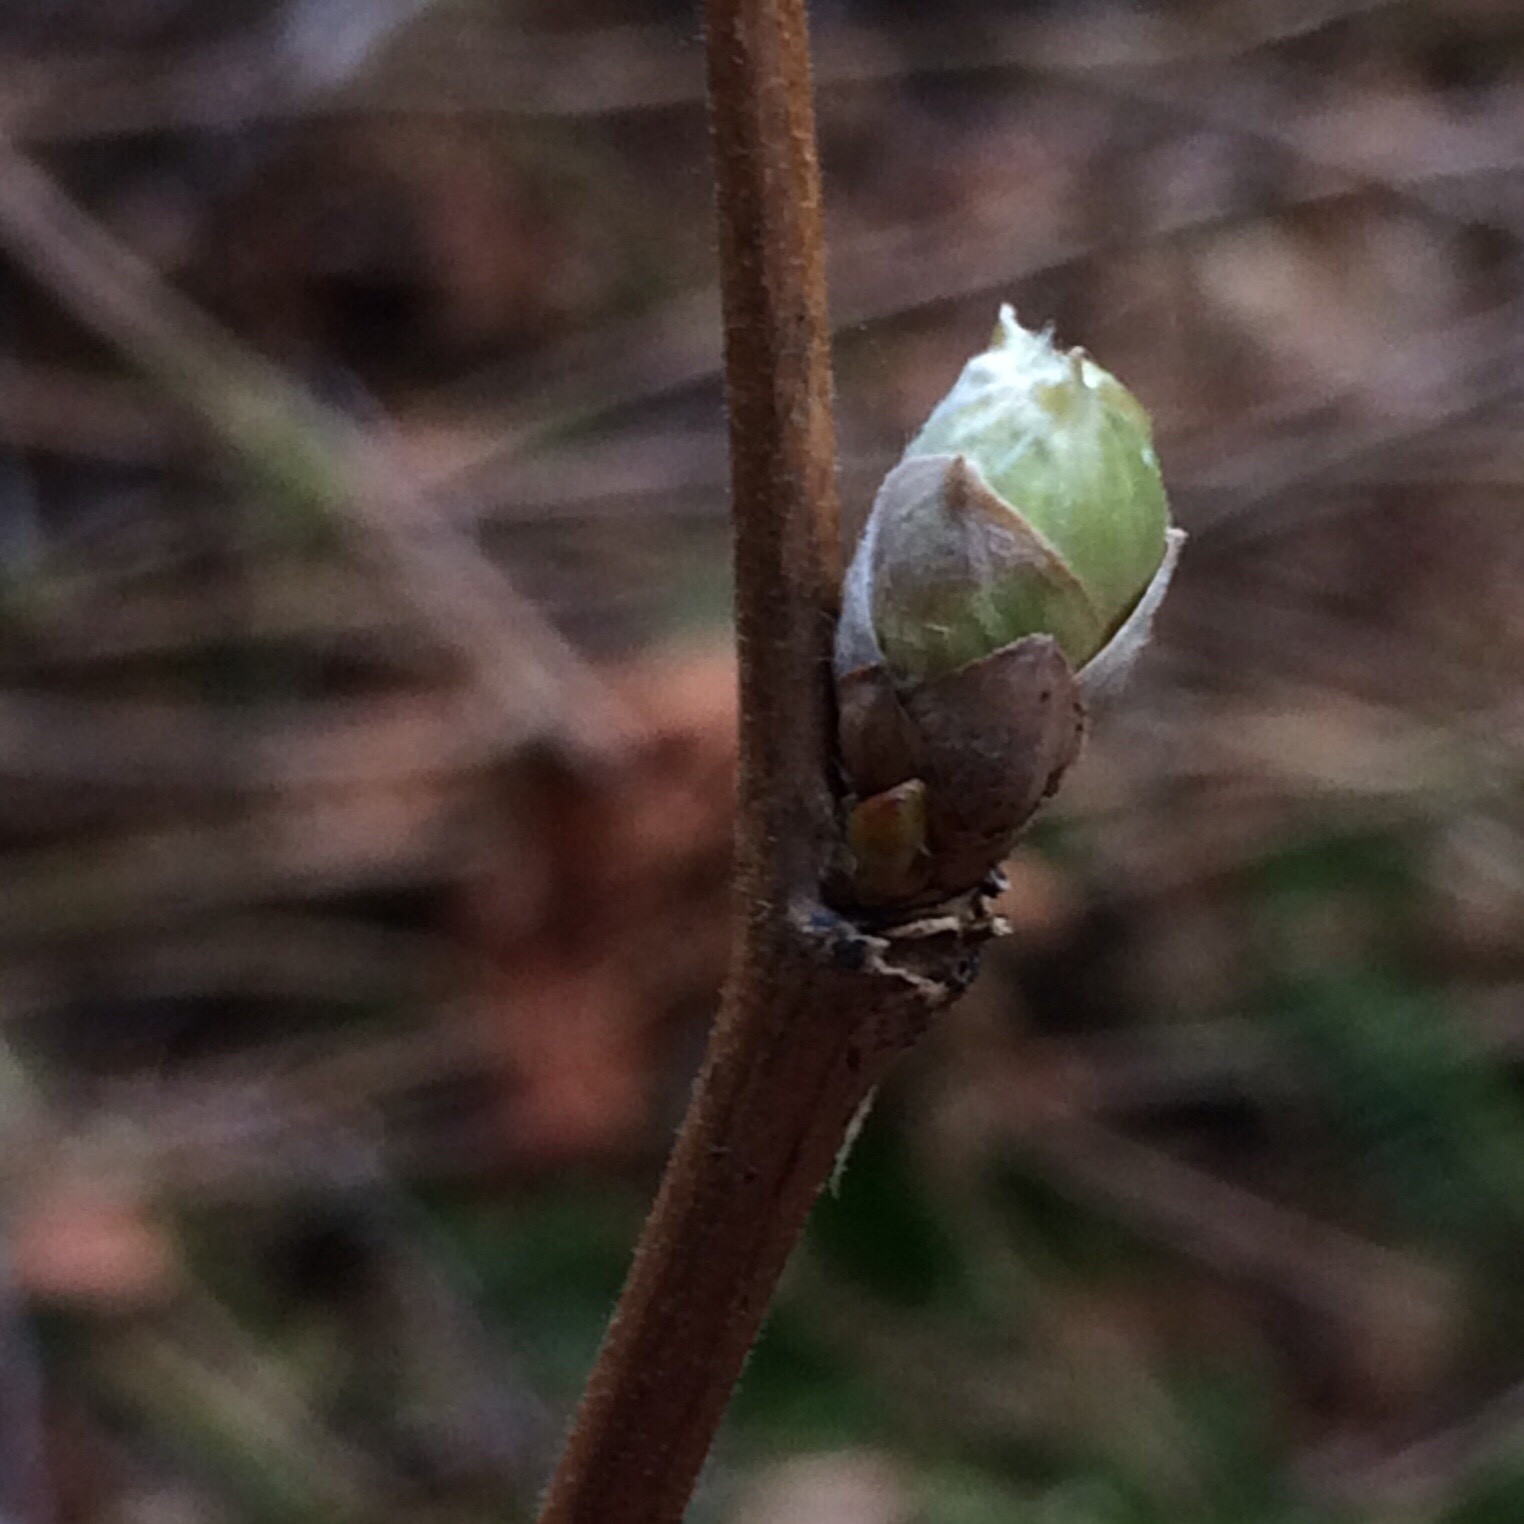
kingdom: Plantae
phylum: Tracheophyta
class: Magnoliopsida
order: Rosales
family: Rosaceae
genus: Rubus
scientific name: Rubus spectabilis
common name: Salmonberry
